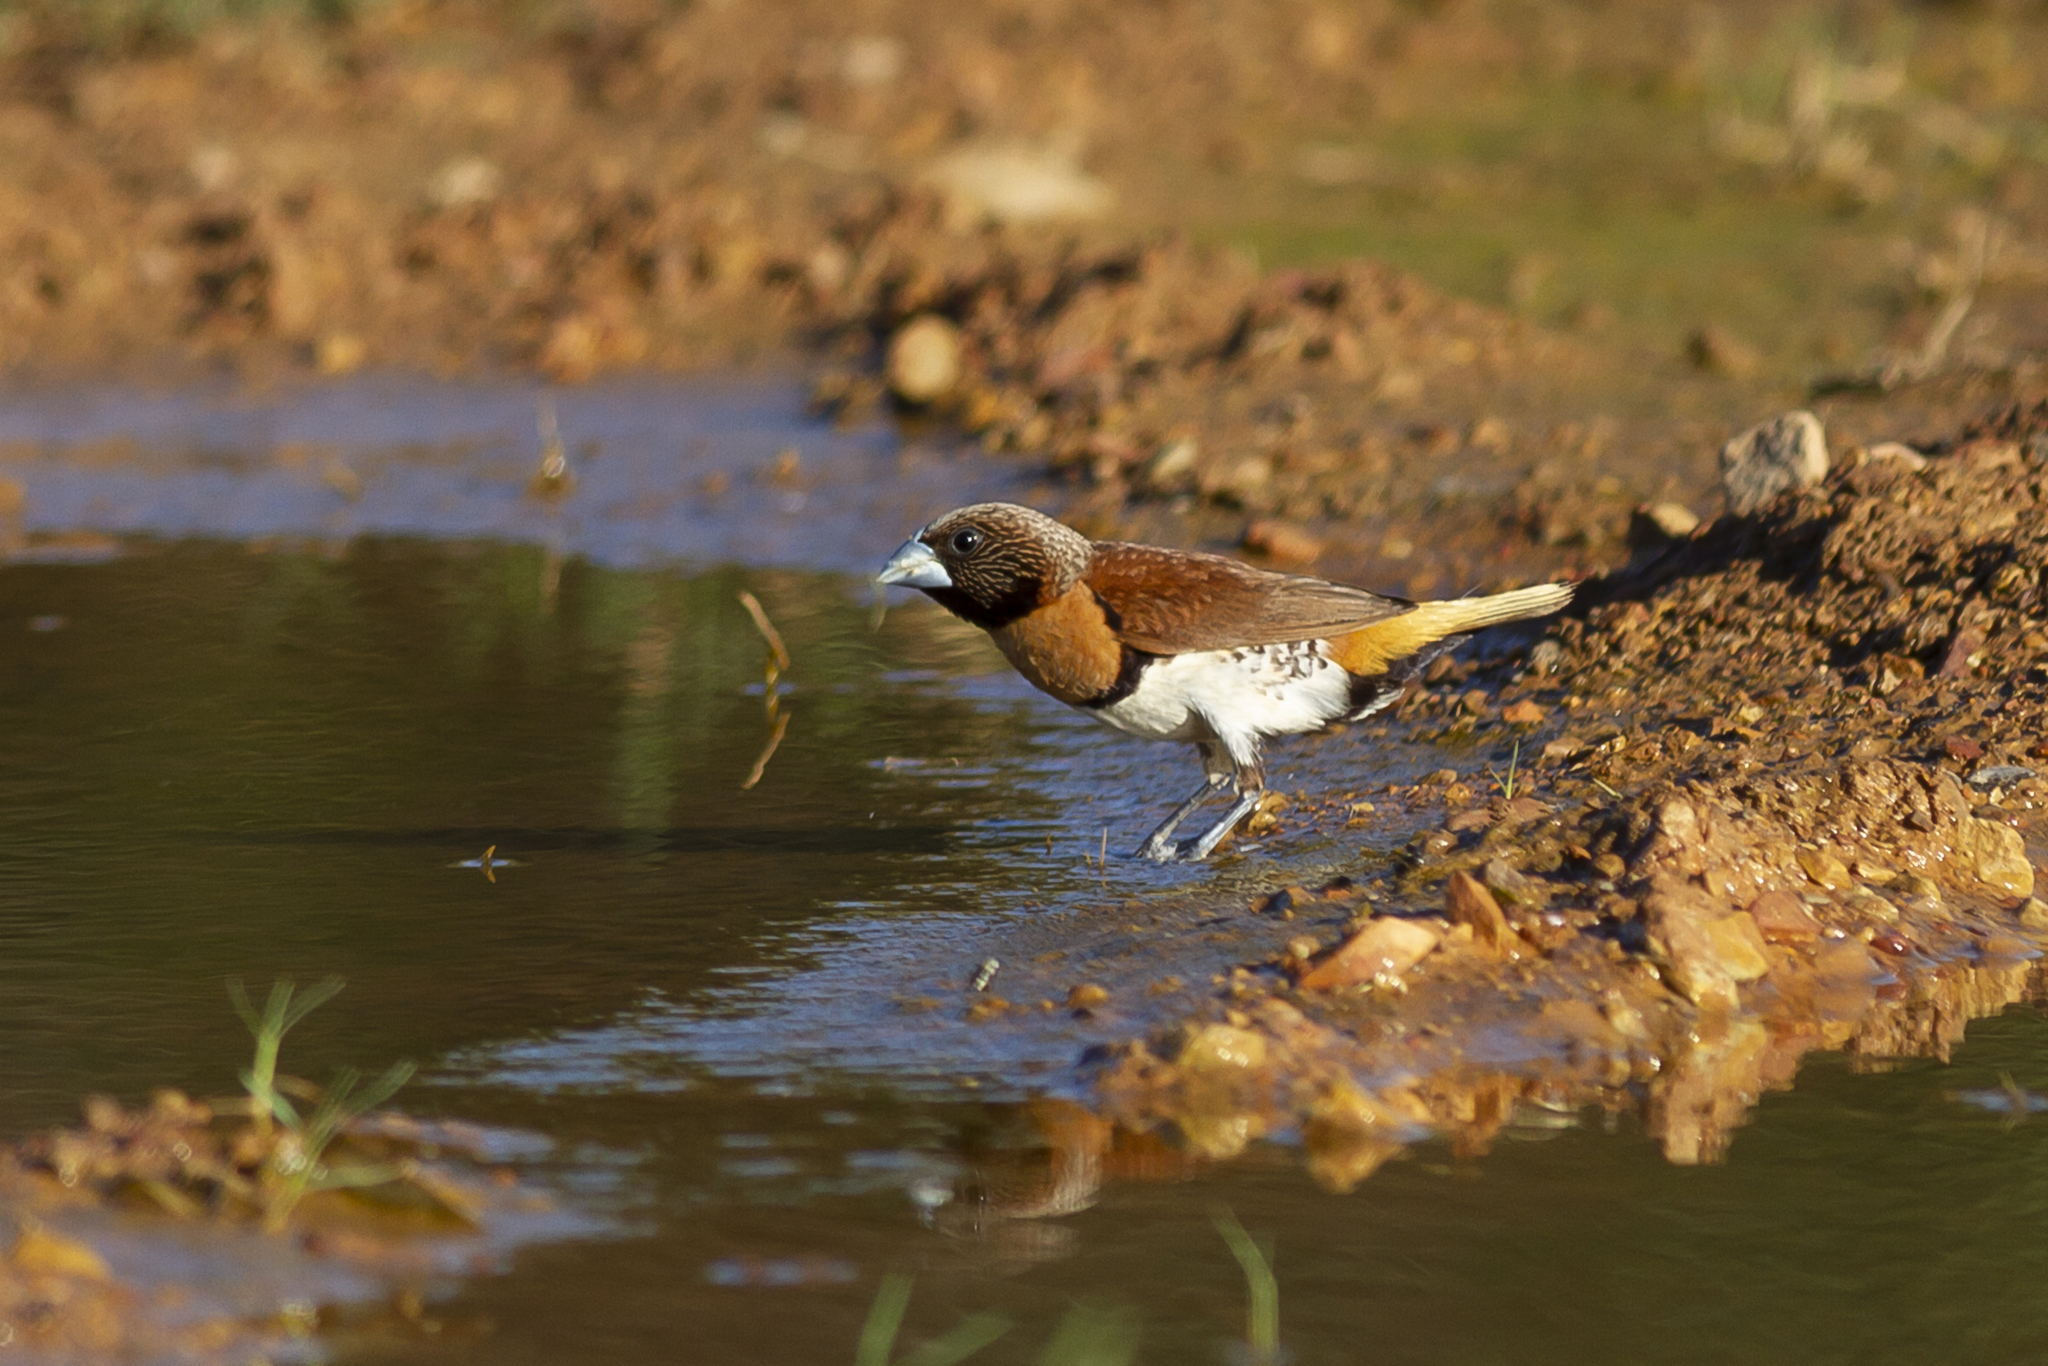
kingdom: Animalia
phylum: Chordata
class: Aves
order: Passeriformes
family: Estrildidae
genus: Lonchura
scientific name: Lonchura castaneothorax
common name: Chestnut-breasted mannikin
